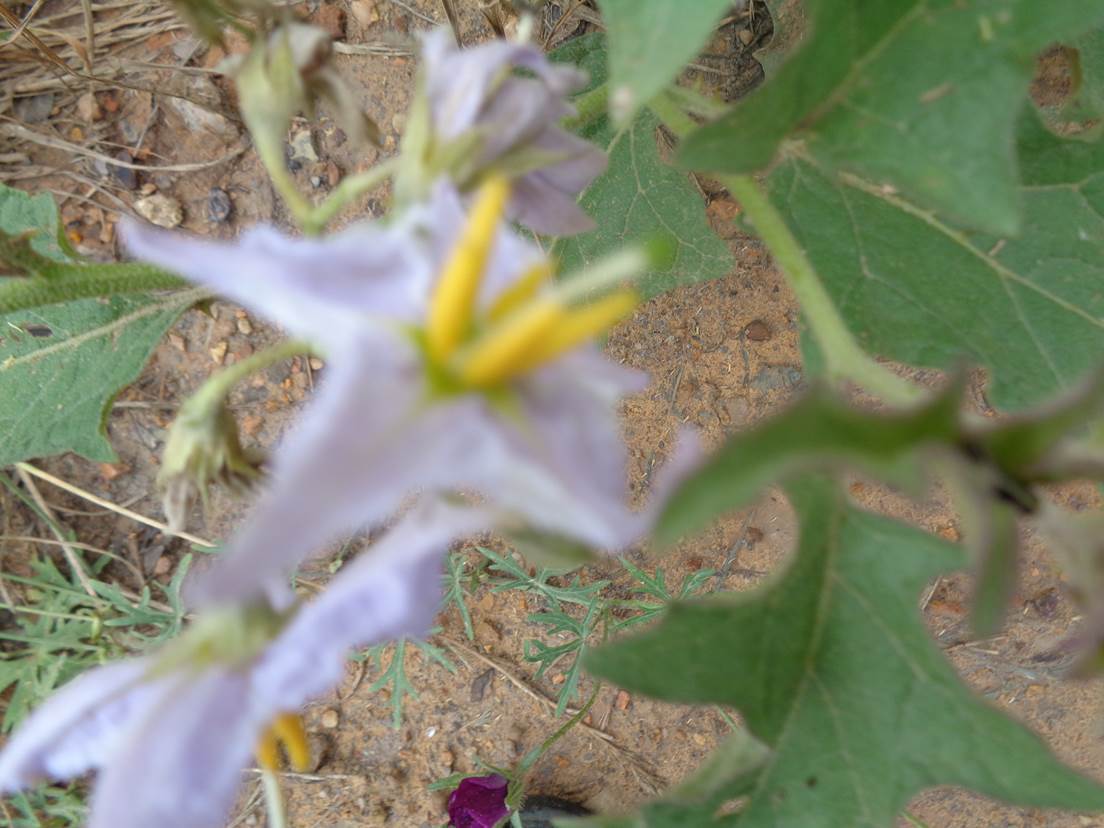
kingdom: Plantae
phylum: Tracheophyta
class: Magnoliopsida
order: Solanales
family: Solanaceae
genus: Solanum
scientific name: Solanum dimidiatum
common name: Carolina horse-nettle
